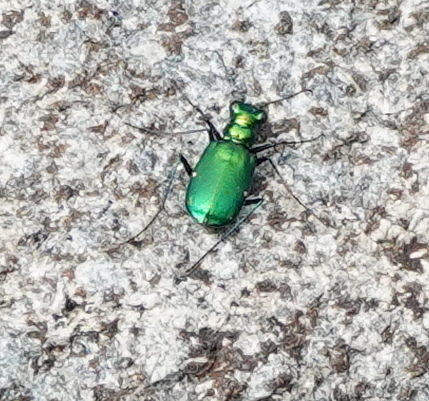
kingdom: Animalia
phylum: Arthropoda
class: Insecta
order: Coleoptera
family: Carabidae
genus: Cicindela
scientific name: Cicindela sexguttata
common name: Six-spotted tiger beetle
